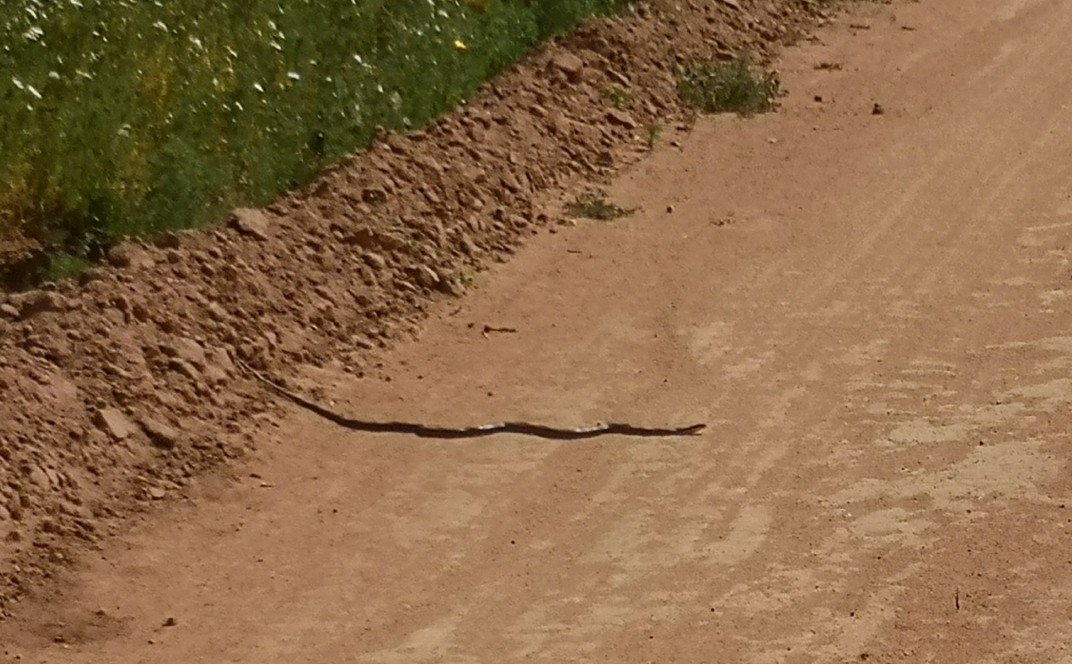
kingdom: Animalia
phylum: Chordata
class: Squamata
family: Colubridae
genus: Philodryas
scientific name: Philodryas chamissonis
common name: Chilean green racer
